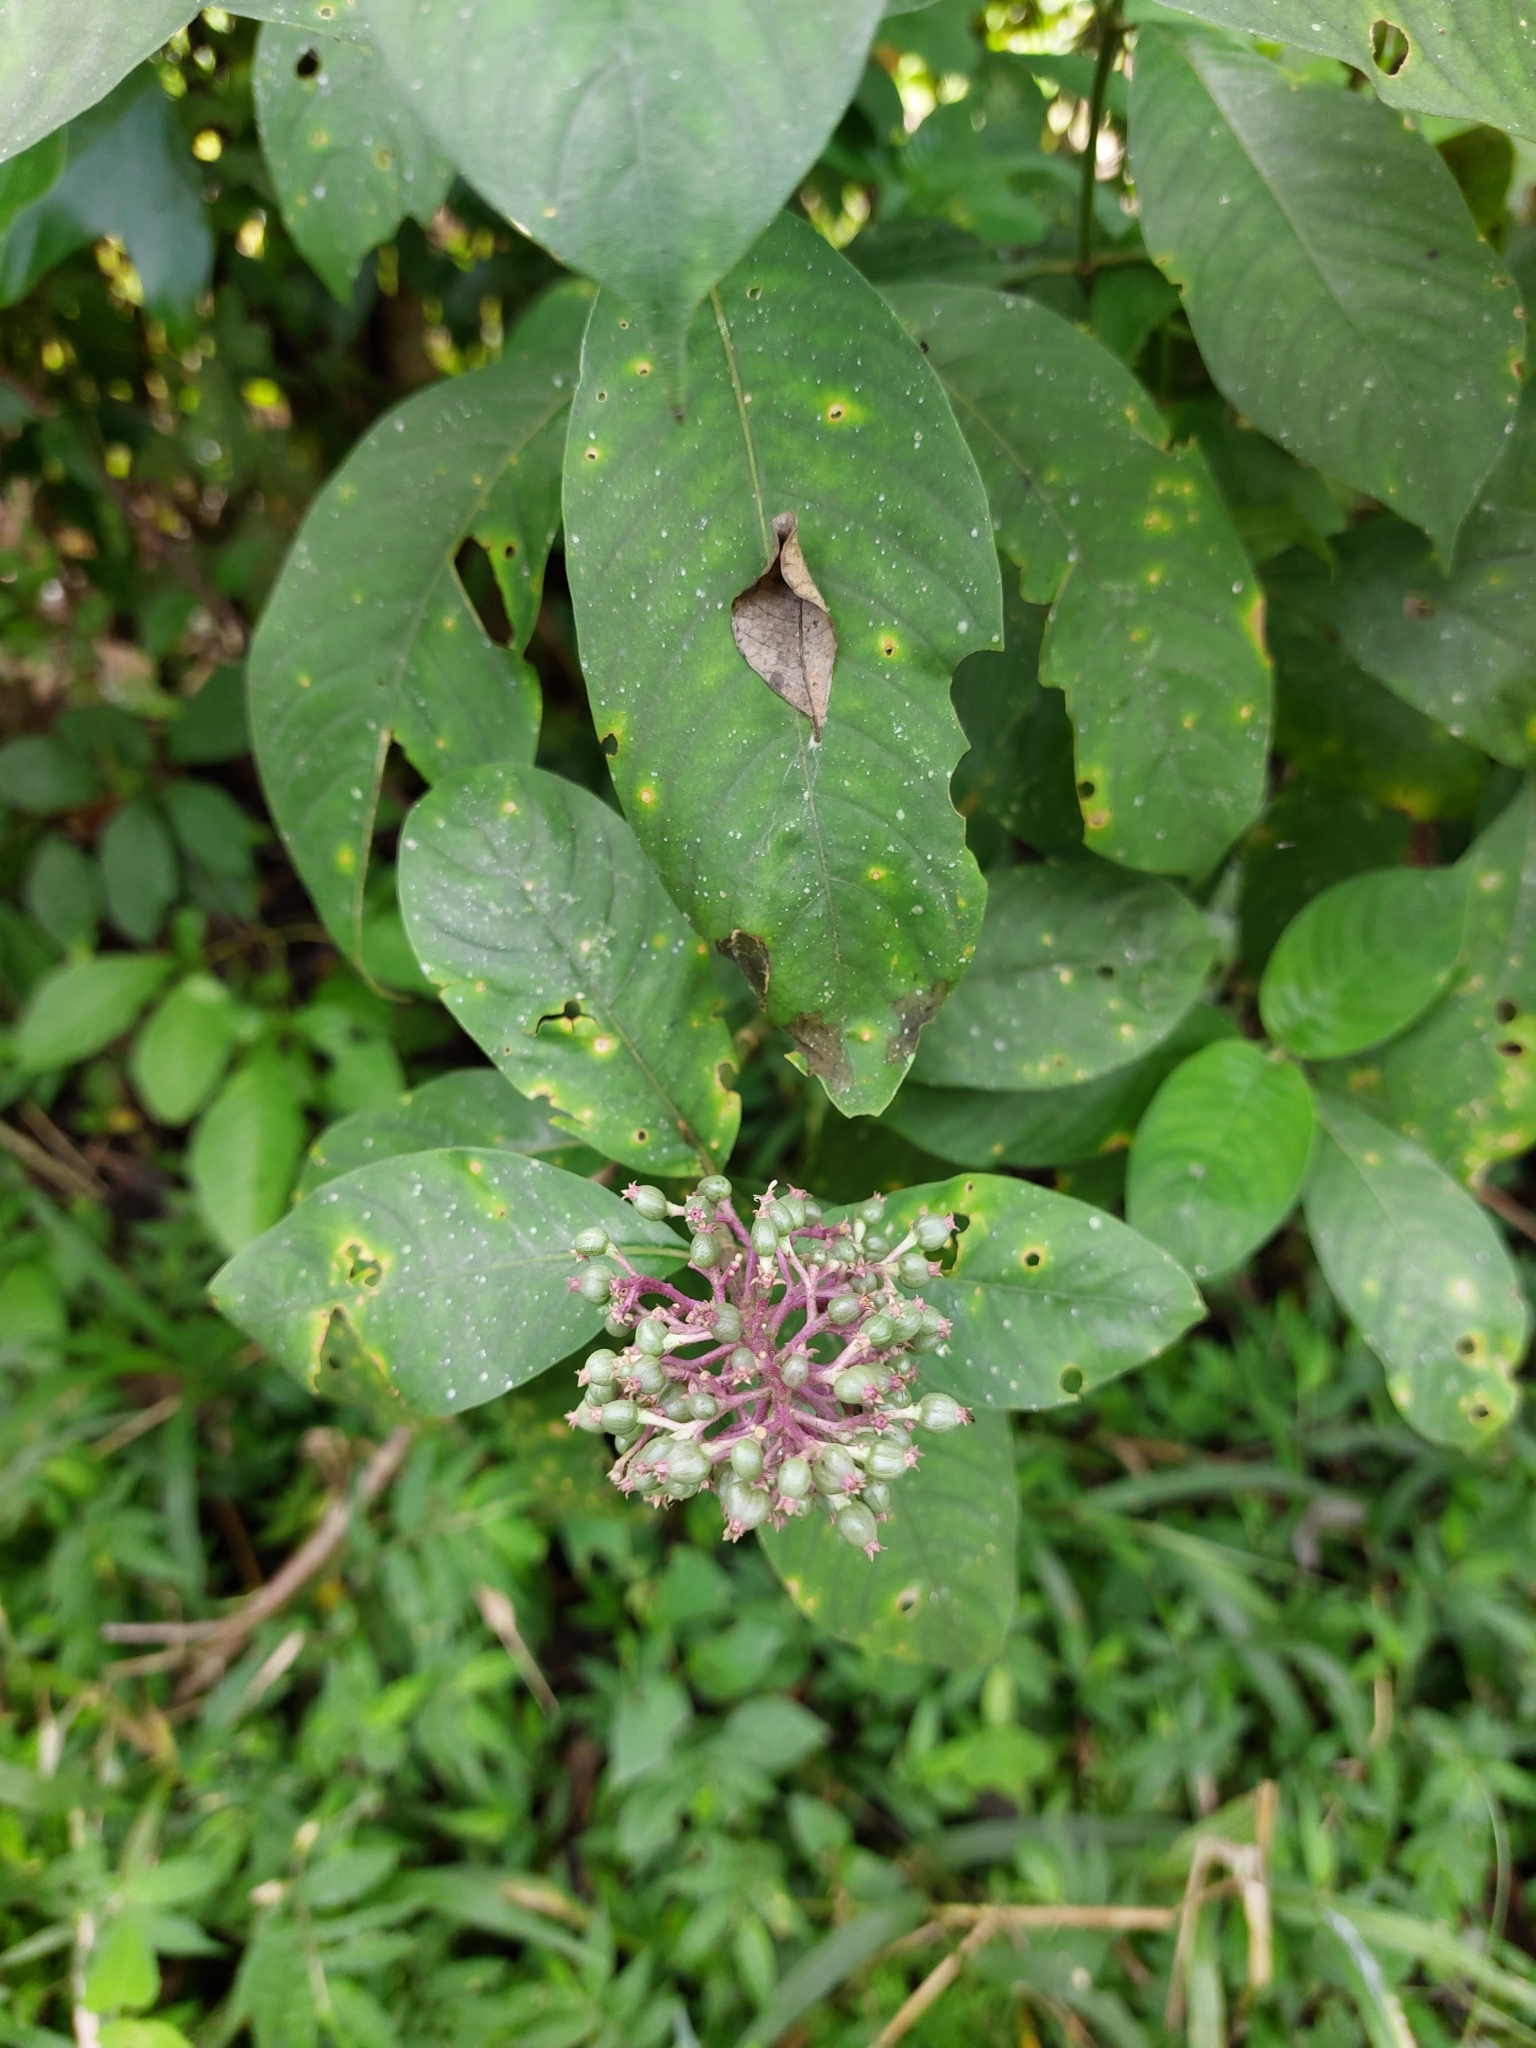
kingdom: Plantae
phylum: Tracheophyta
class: Magnoliopsida
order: Gentianales
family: Rubiaceae
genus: Palicourea
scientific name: Palicourea hebeclada
